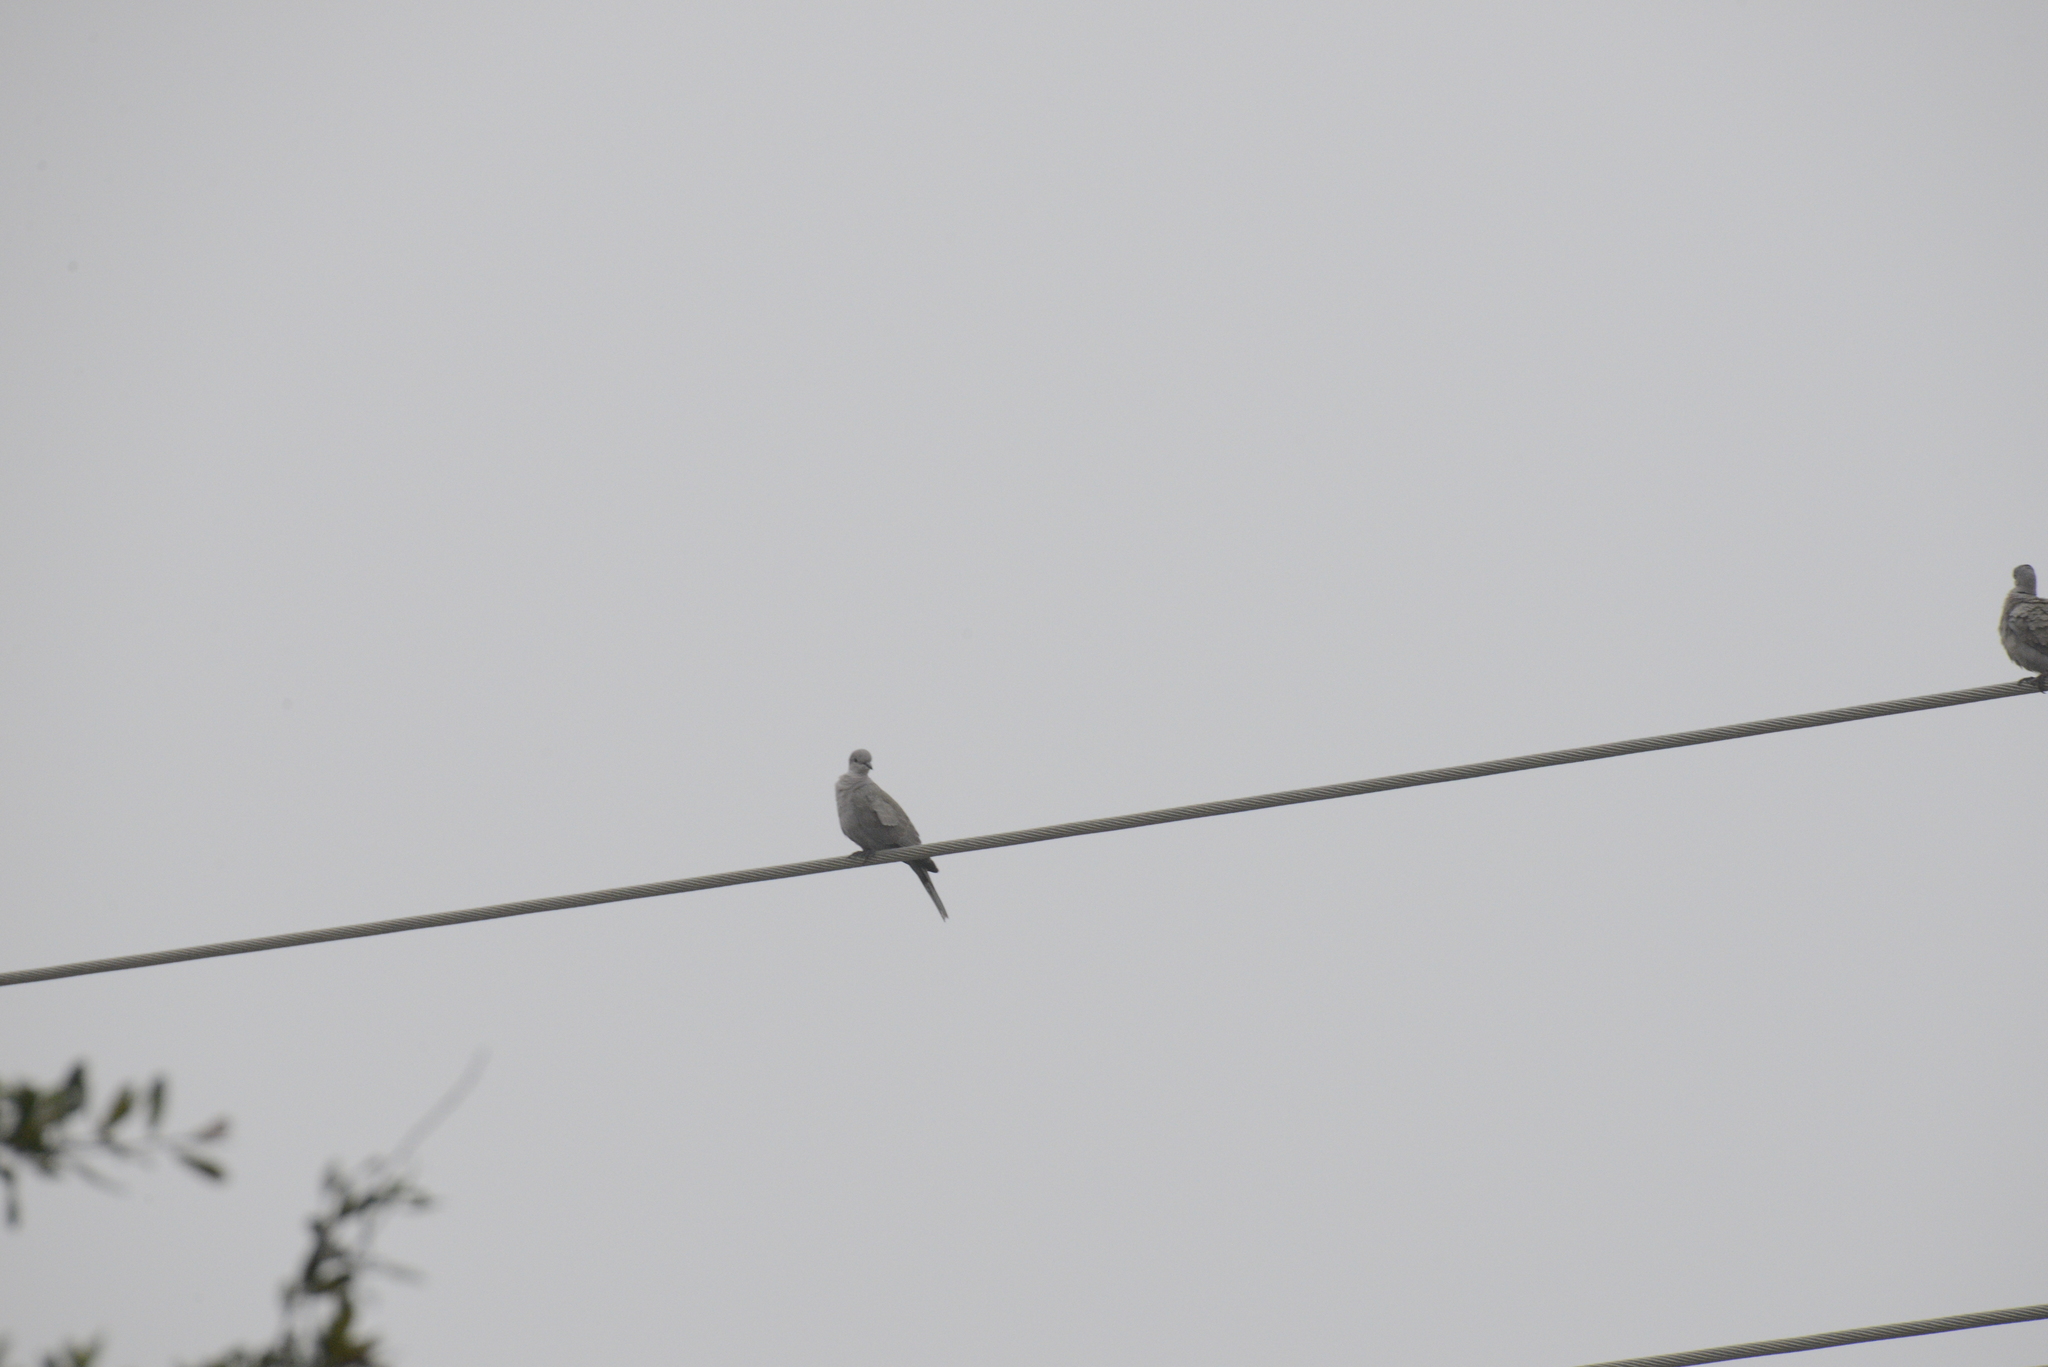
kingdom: Animalia
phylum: Chordata
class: Aves
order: Columbiformes
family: Columbidae
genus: Streptopelia
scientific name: Streptopelia decaocto
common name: Eurasian collared dove
